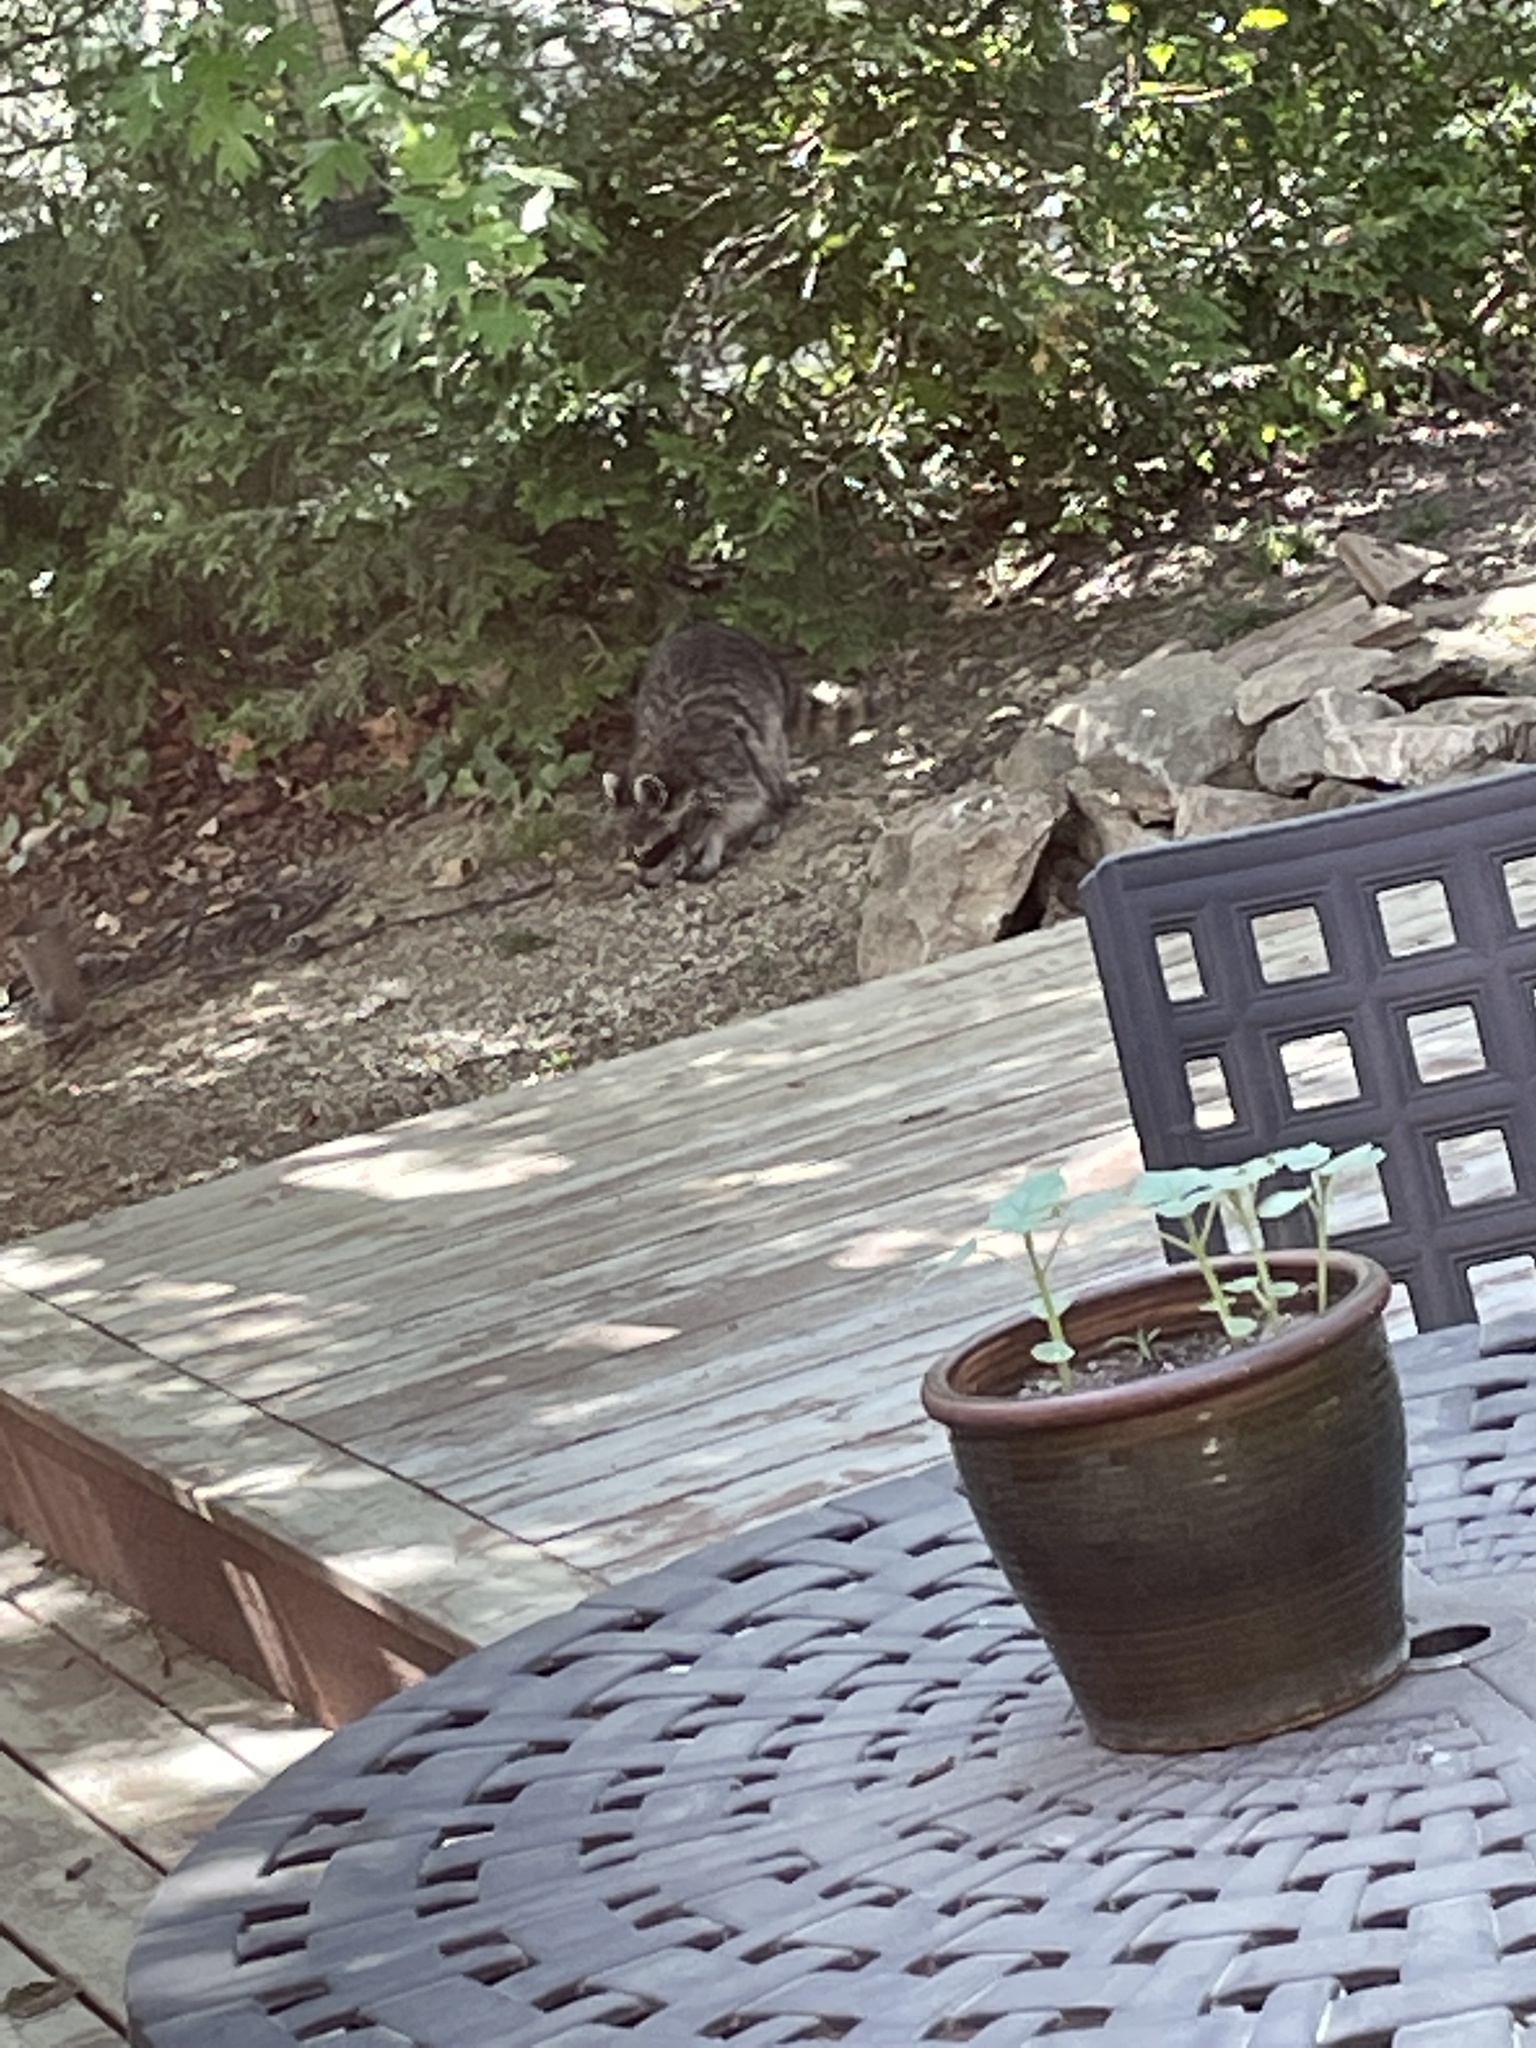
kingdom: Animalia
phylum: Chordata
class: Mammalia
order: Carnivora
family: Procyonidae
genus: Procyon
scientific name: Procyon lotor
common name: Raccoon
